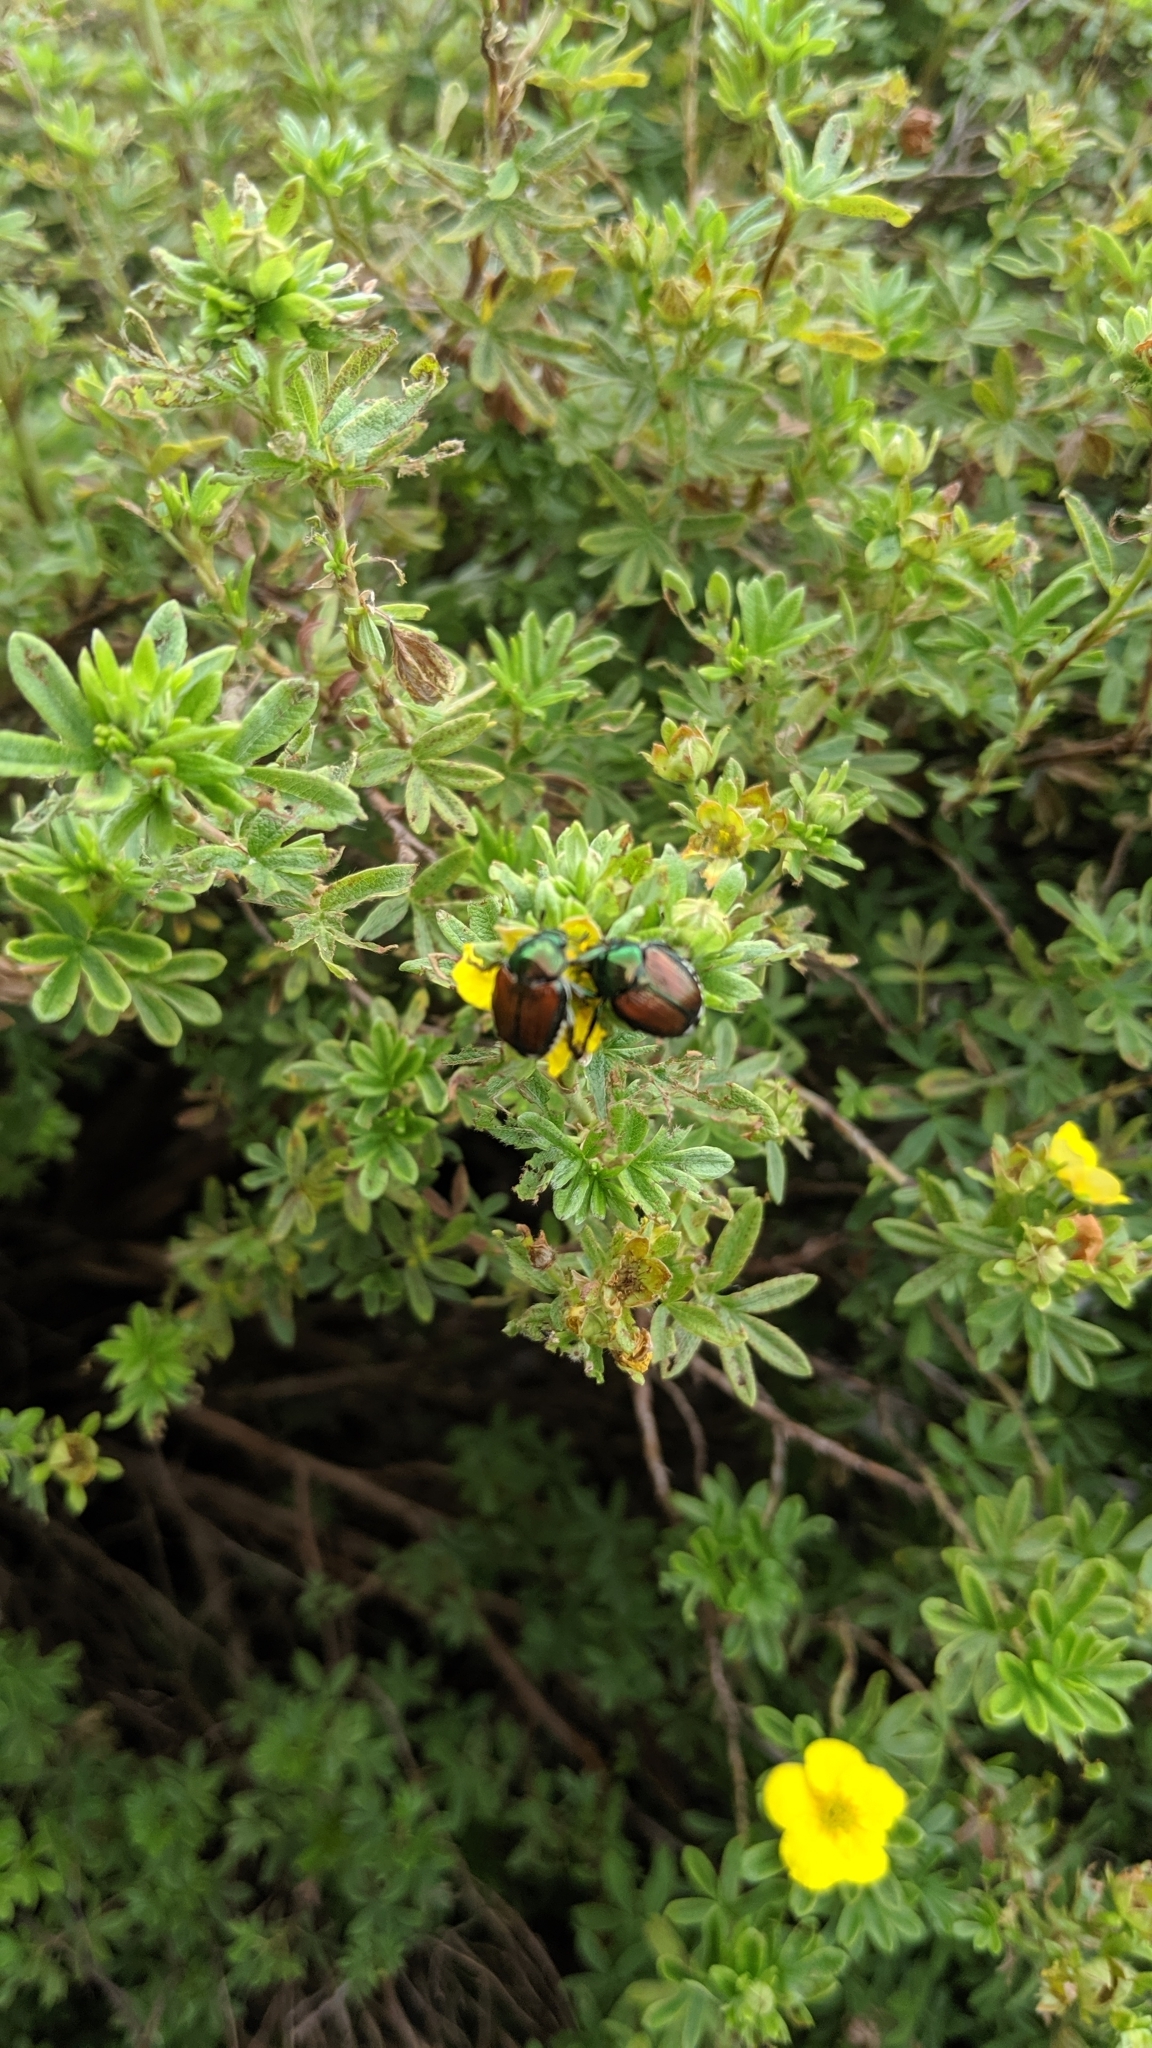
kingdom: Animalia
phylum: Arthropoda
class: Insecta
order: Coleoptera
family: Scarabaeidae
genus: Popillia
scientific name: Popillia japonica
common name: Japanese beetle
